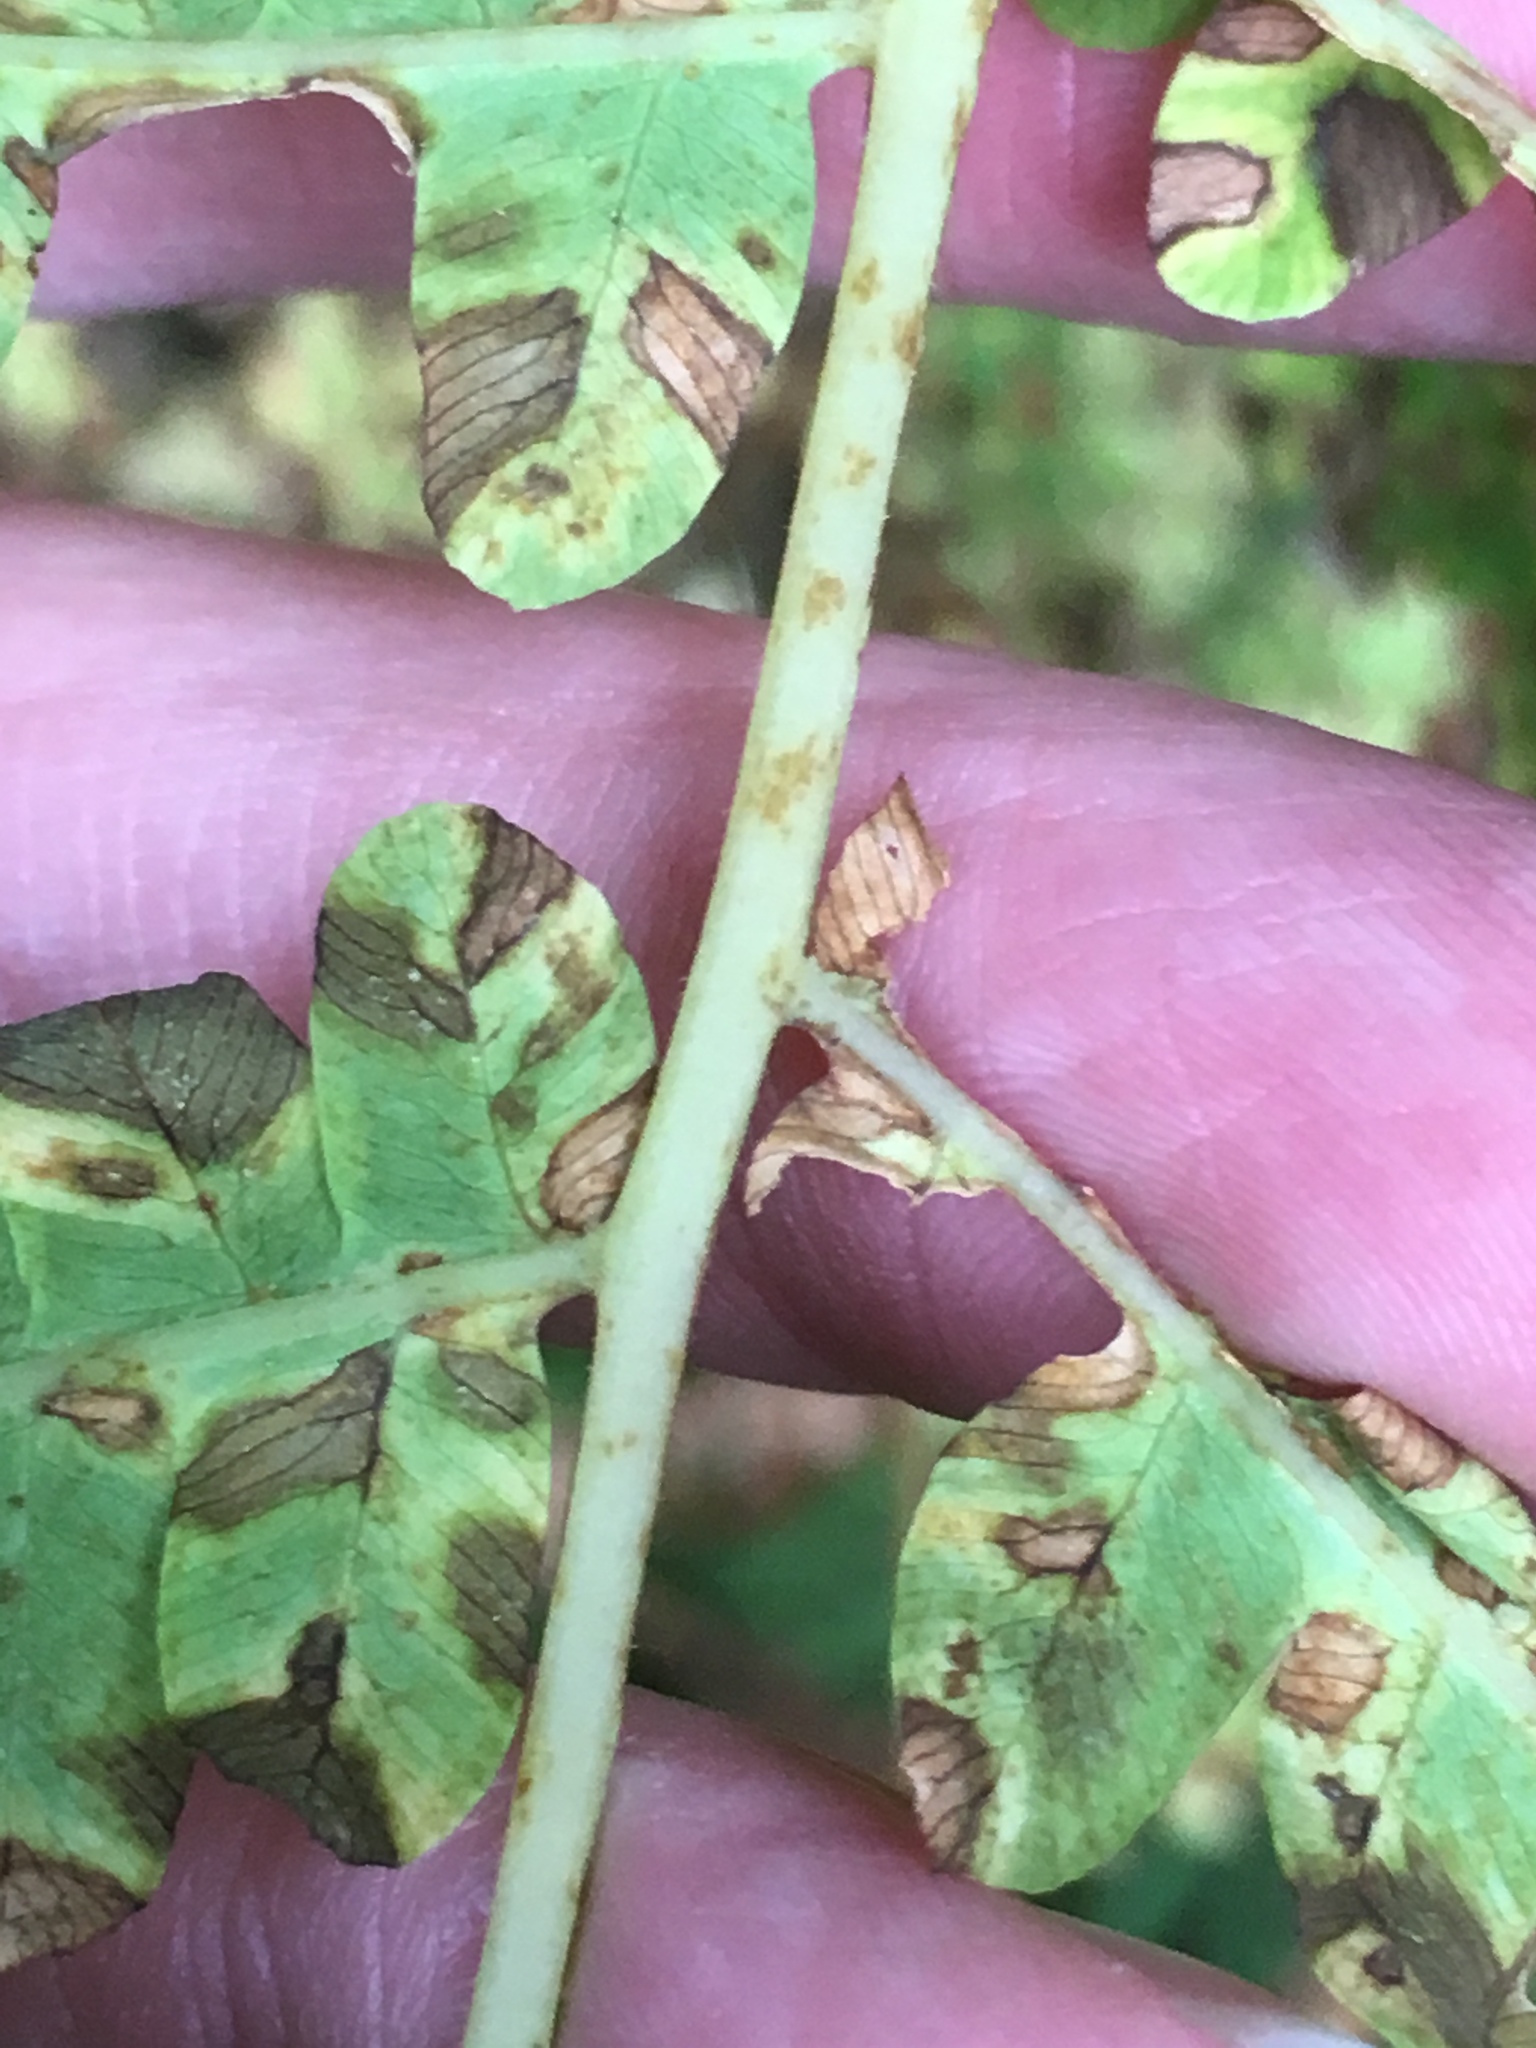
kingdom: Plantae
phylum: Tracheophyta
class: Polypodiopsida
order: Osmundales
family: Osmundaceae
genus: Osmundastrum
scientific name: Osmundastrum cinnamomeum
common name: Cinnamon fern
